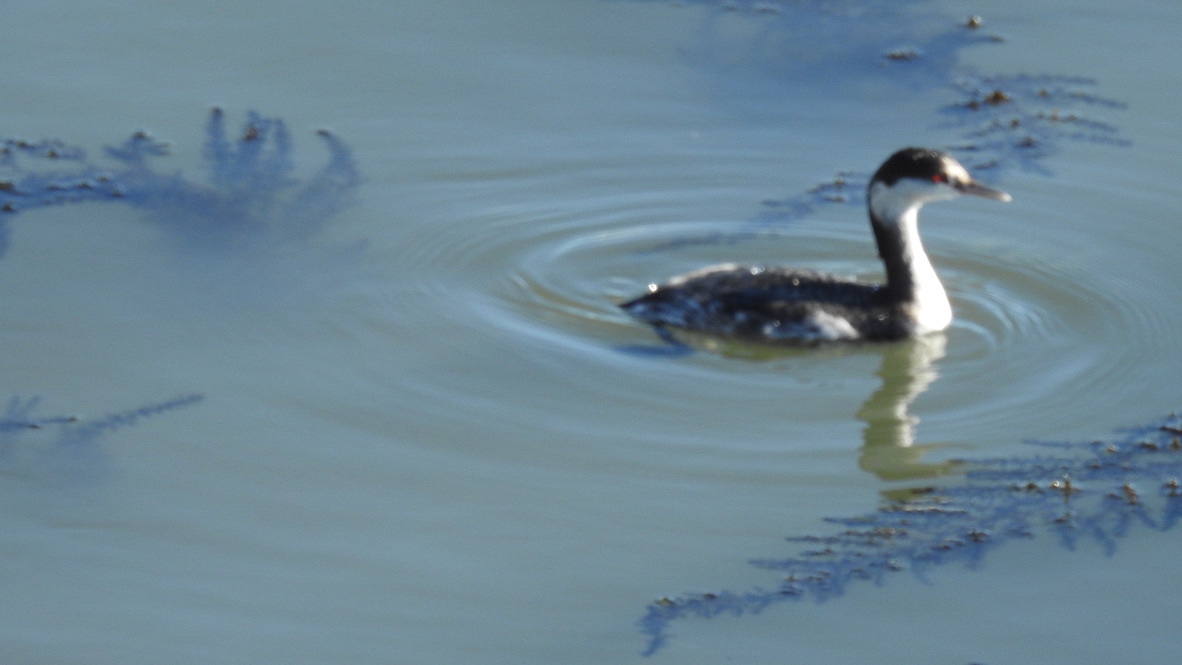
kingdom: Animalia
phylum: Chordata
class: Aves
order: Podicipediformes
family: Podicipedidae
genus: Podiceps
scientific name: Podiceps auritus
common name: Horned grebe
